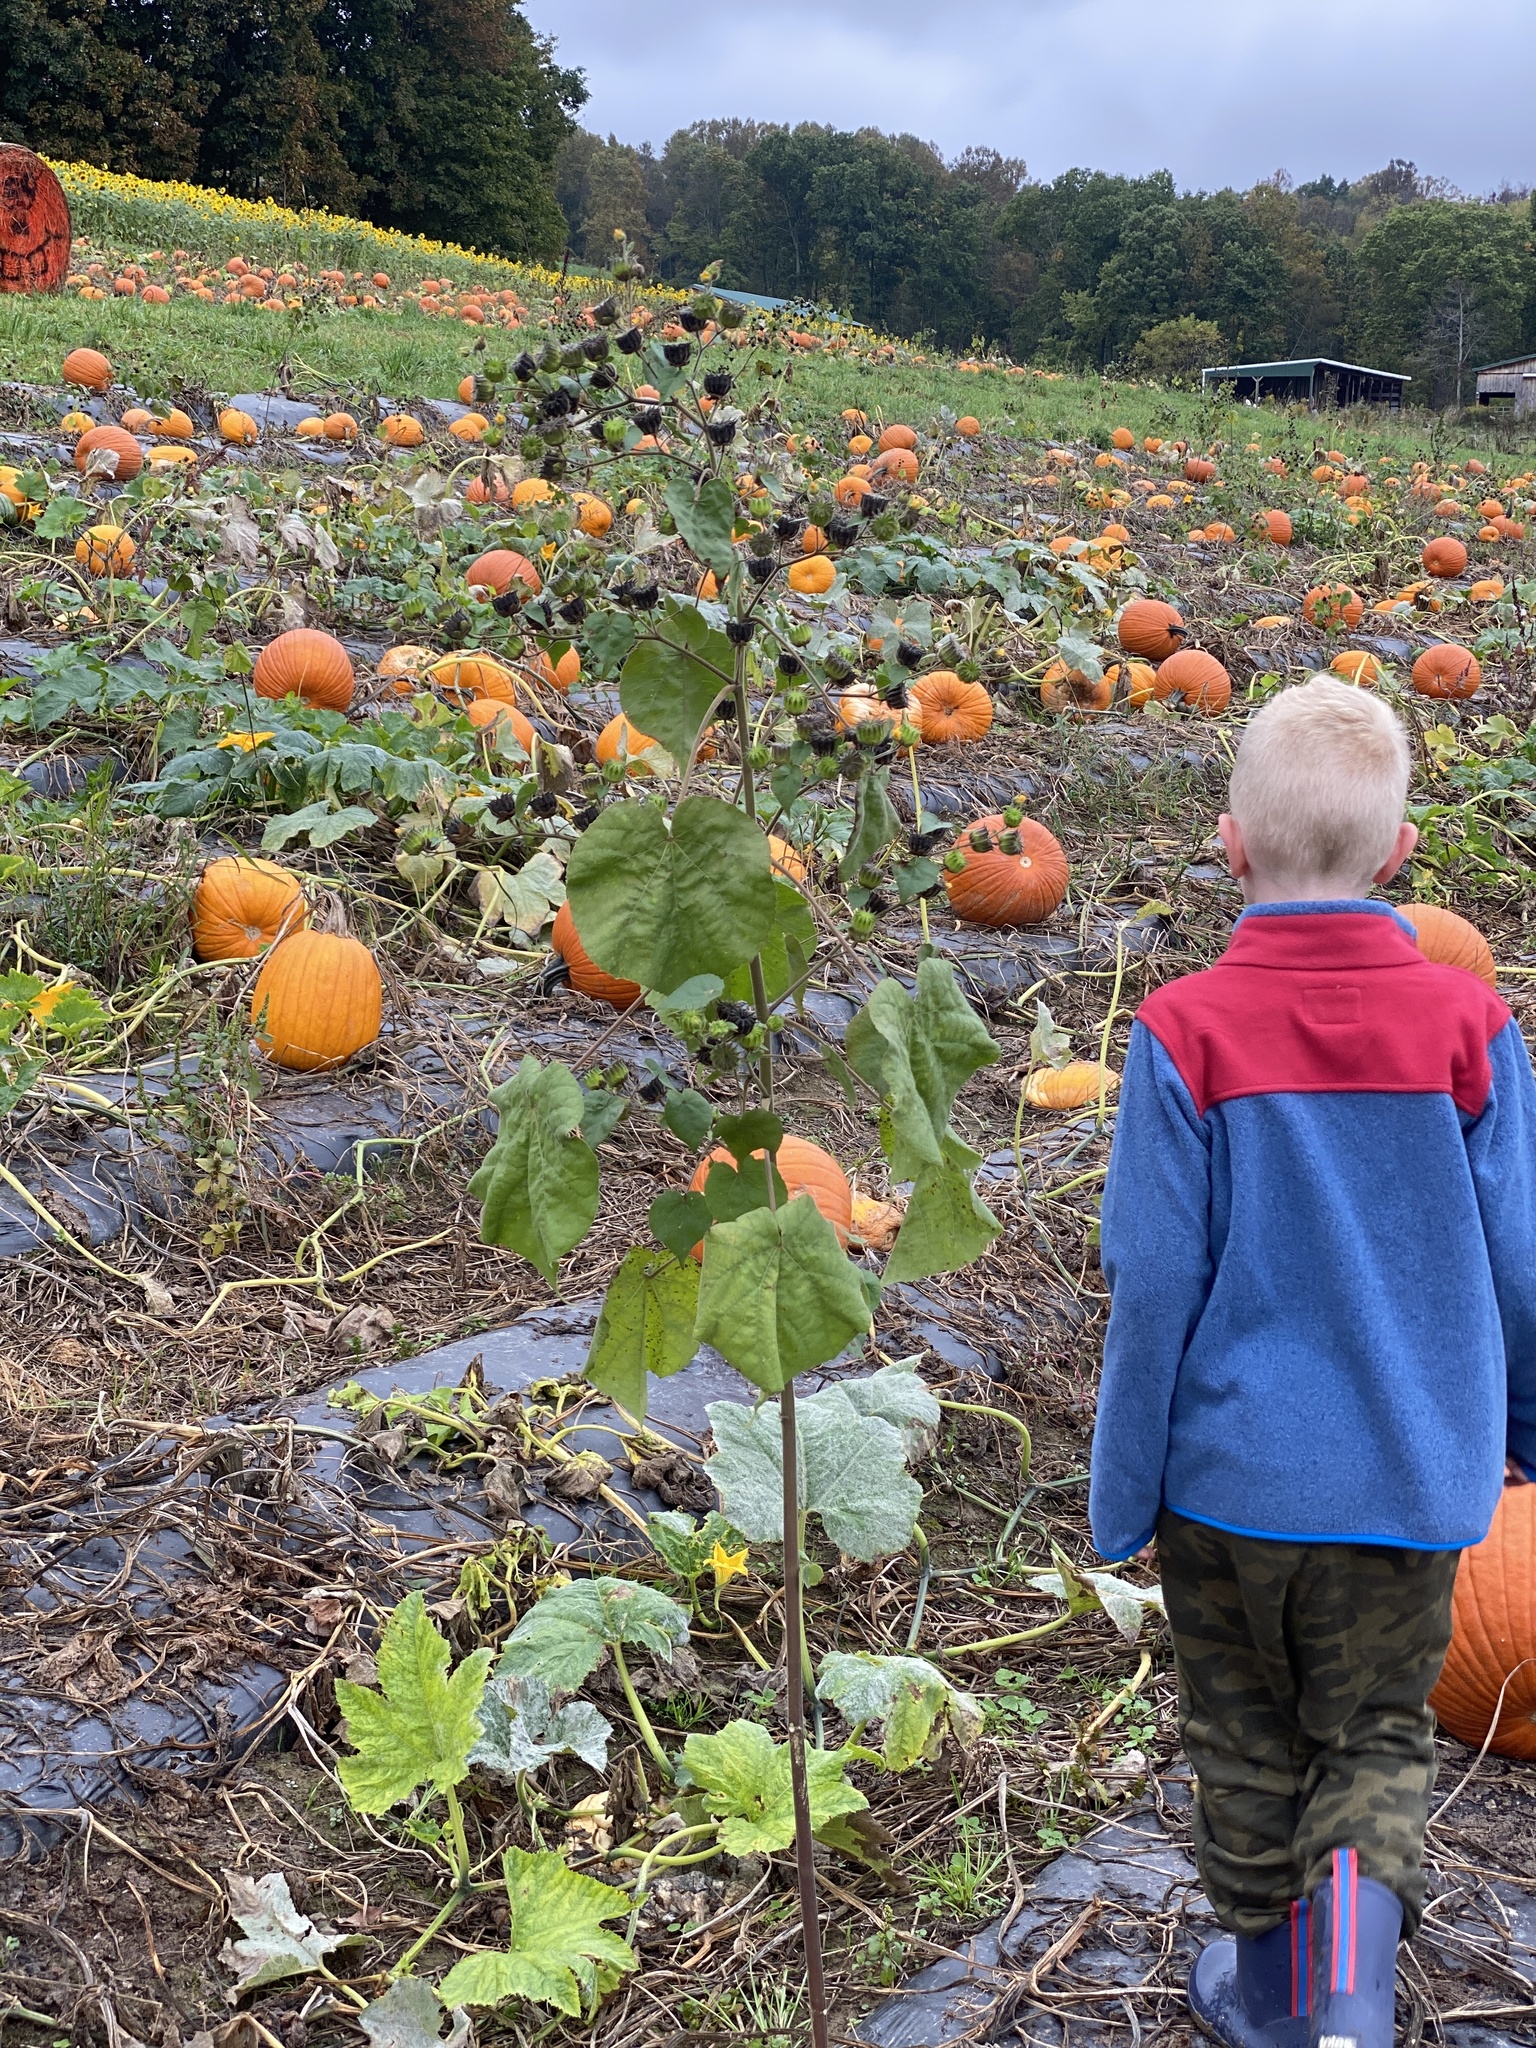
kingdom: Plantae
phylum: Tracheophyta
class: Magnoliopsida
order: Malvales
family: Malvaceae
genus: Abutilon
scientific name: Abutilon theophrasti
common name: Velvetleaf
